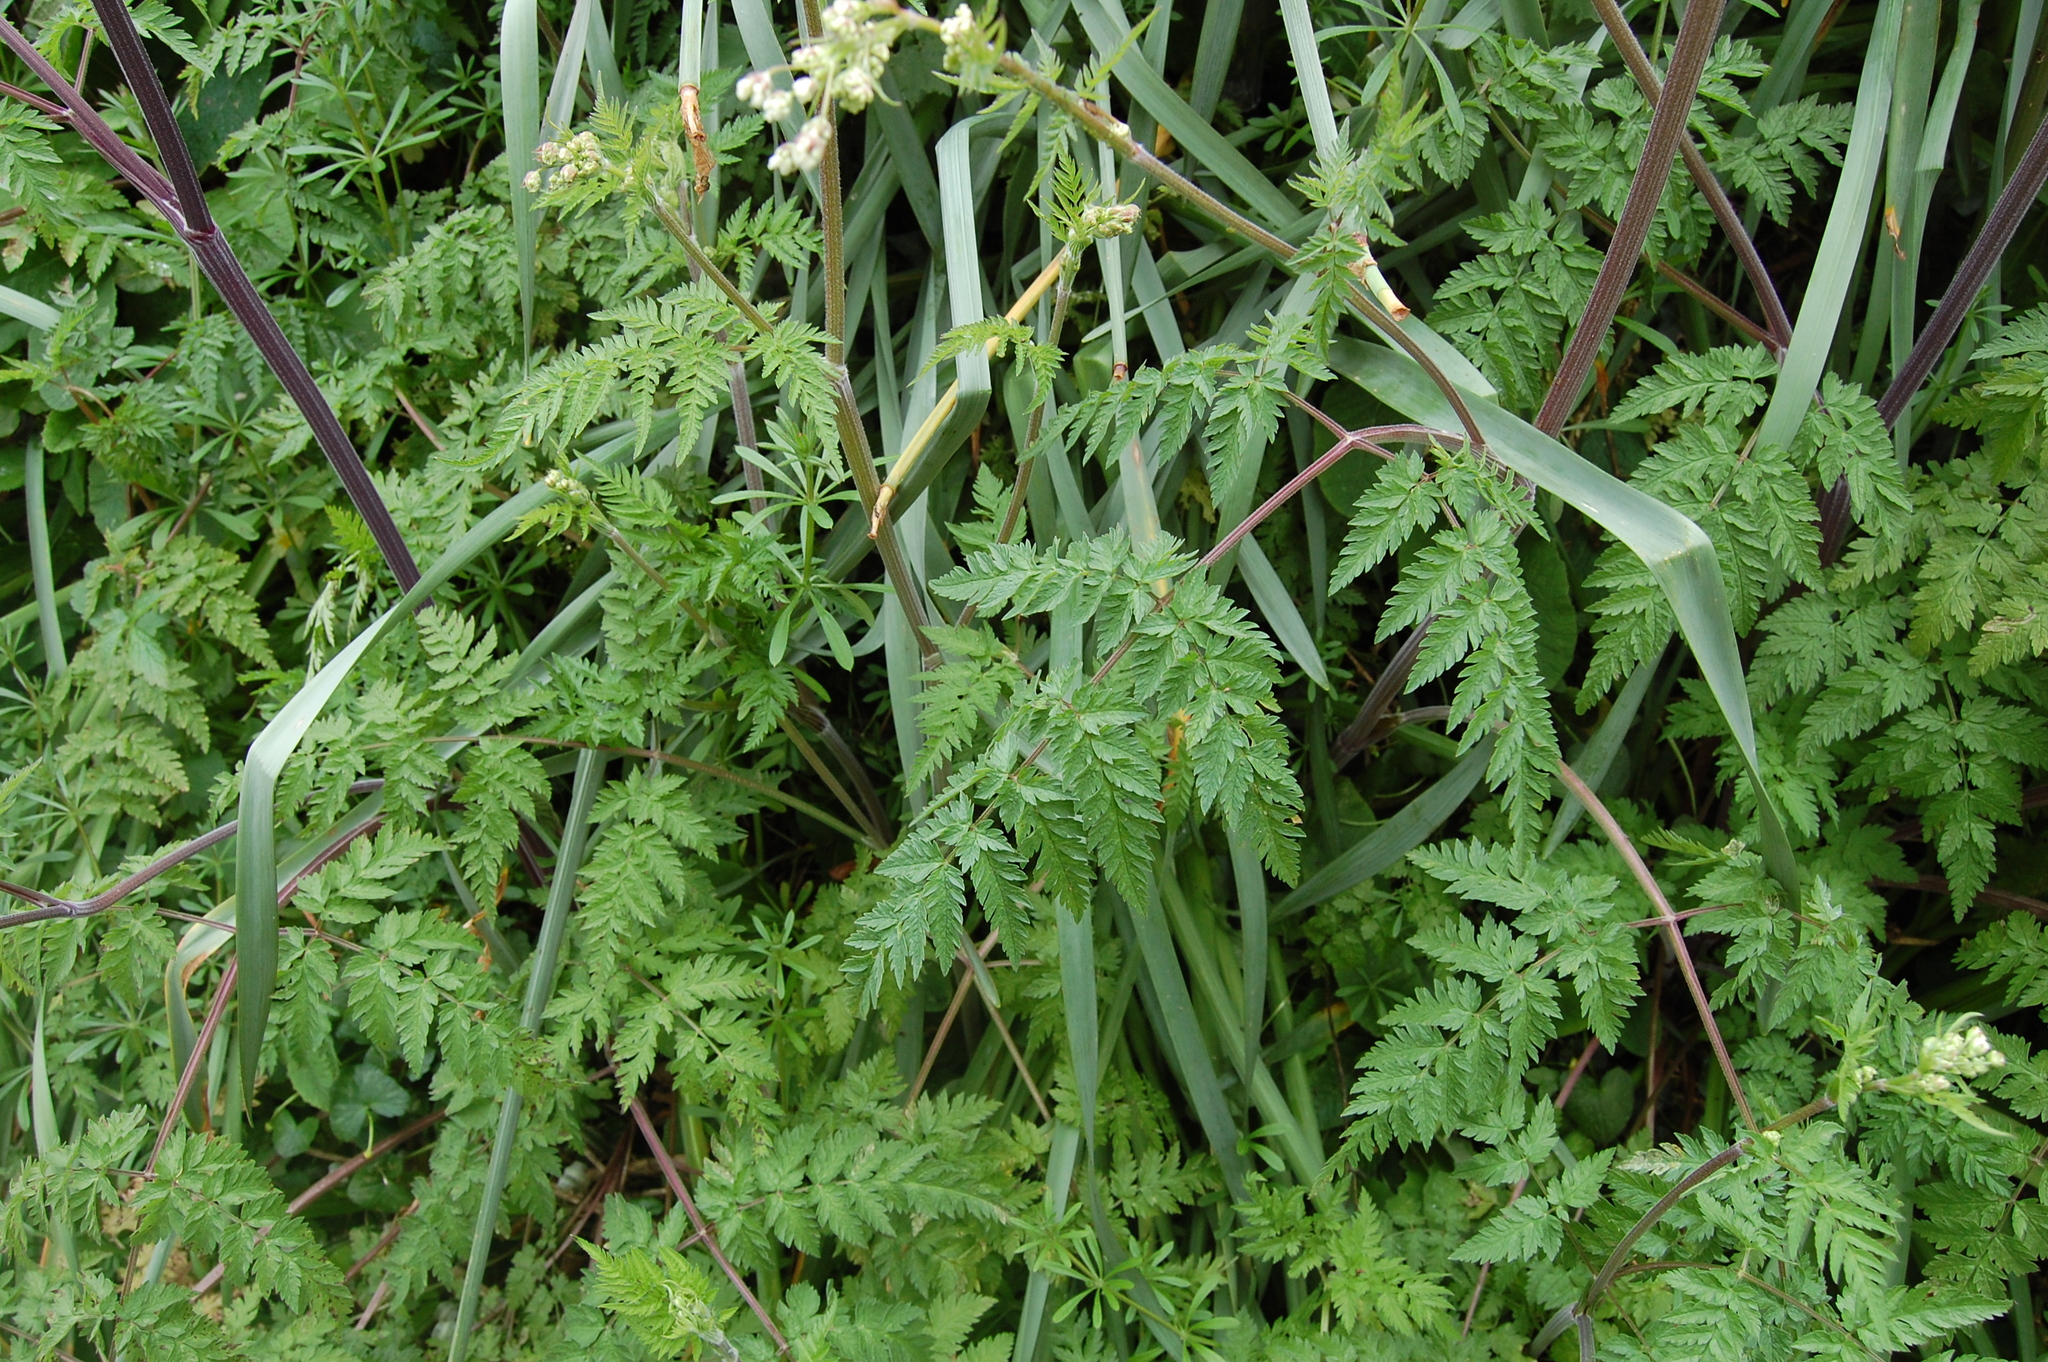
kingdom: Plantae
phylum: Tracheophyta
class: Magnoliopsida
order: Apiales
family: Apiaceae
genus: Anthriscus
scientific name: Anthriscus sylvestris
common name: Cow parsley
